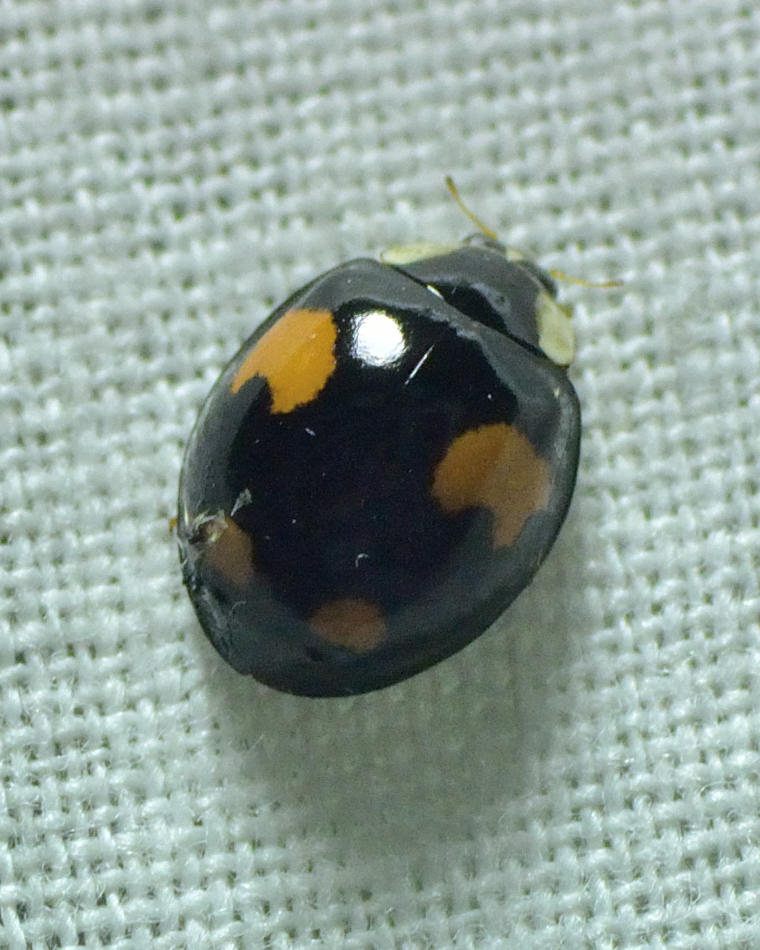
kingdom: Animalia
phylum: Arthropoda
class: Insecta
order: Coleoptera
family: Coccinellidae
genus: Harmonia
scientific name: Harmonia axyridis
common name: Harlequin ladybird
